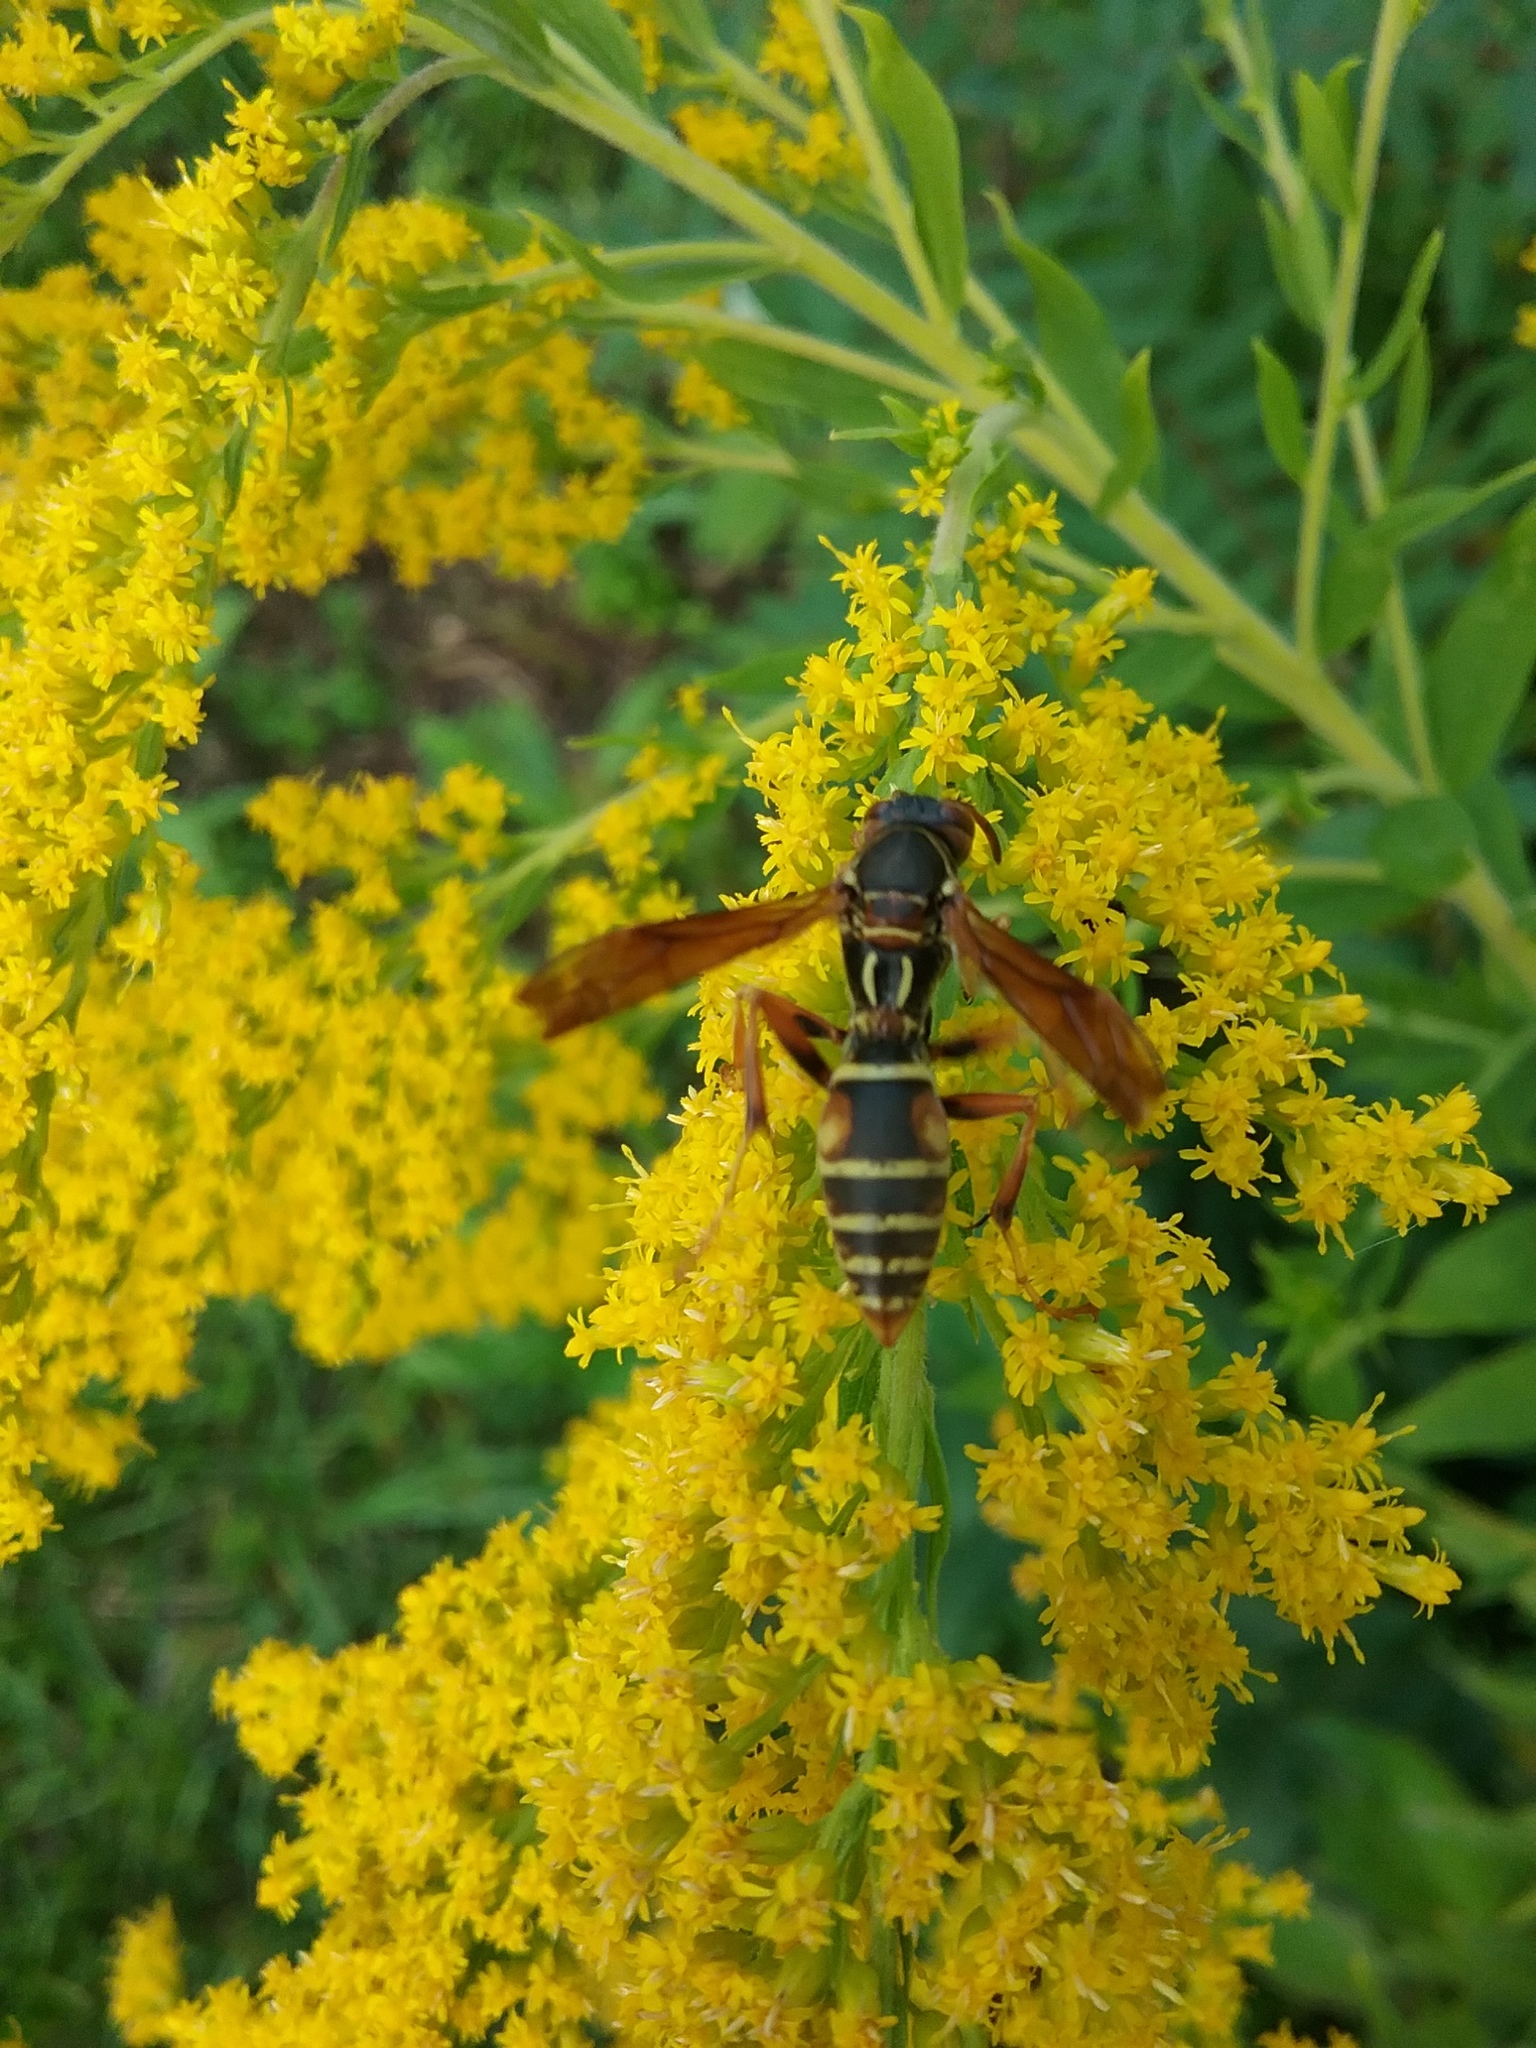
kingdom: Animalia
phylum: Arthropoda
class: Insecta
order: Hymenoptera
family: Eumenidae
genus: Polistes
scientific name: Polistes fuscatus
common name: Dark paper wasp
